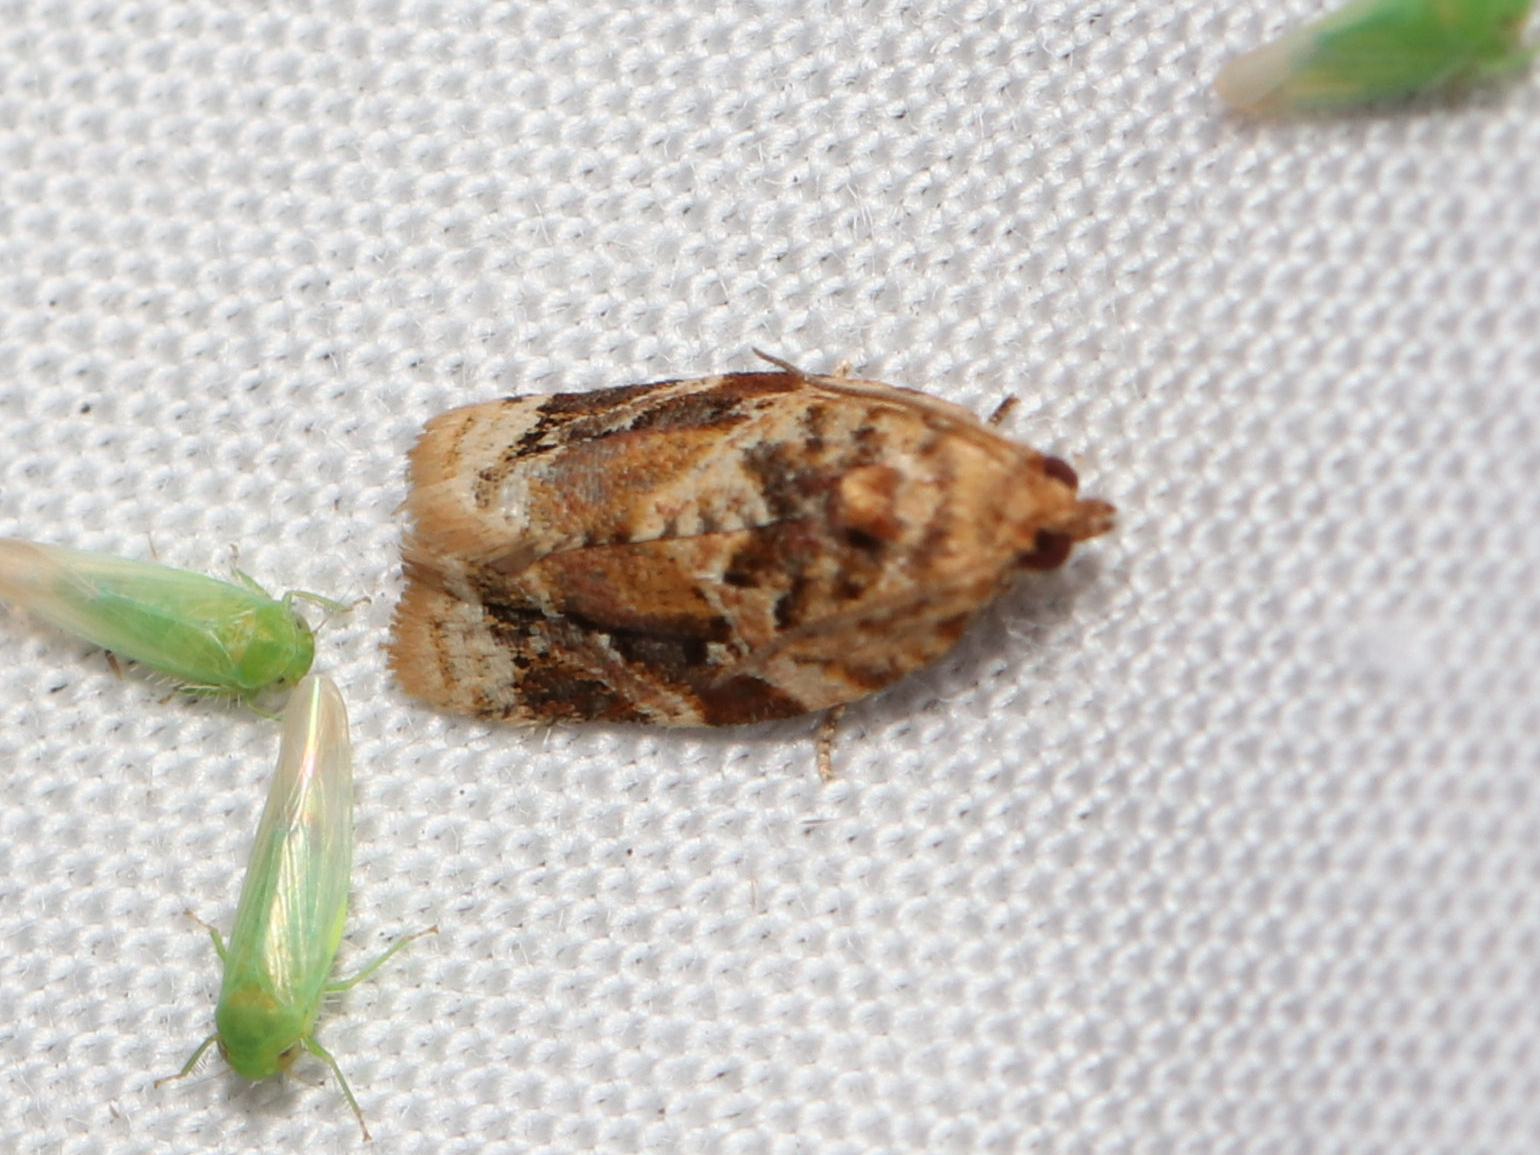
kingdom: Animalia
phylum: Arthropoda
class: Insecta
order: Lepidoptera
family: Tortricidae
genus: Argyrotaenia
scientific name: Argyrotaenia velutinana
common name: Red-banded leafroller moth
